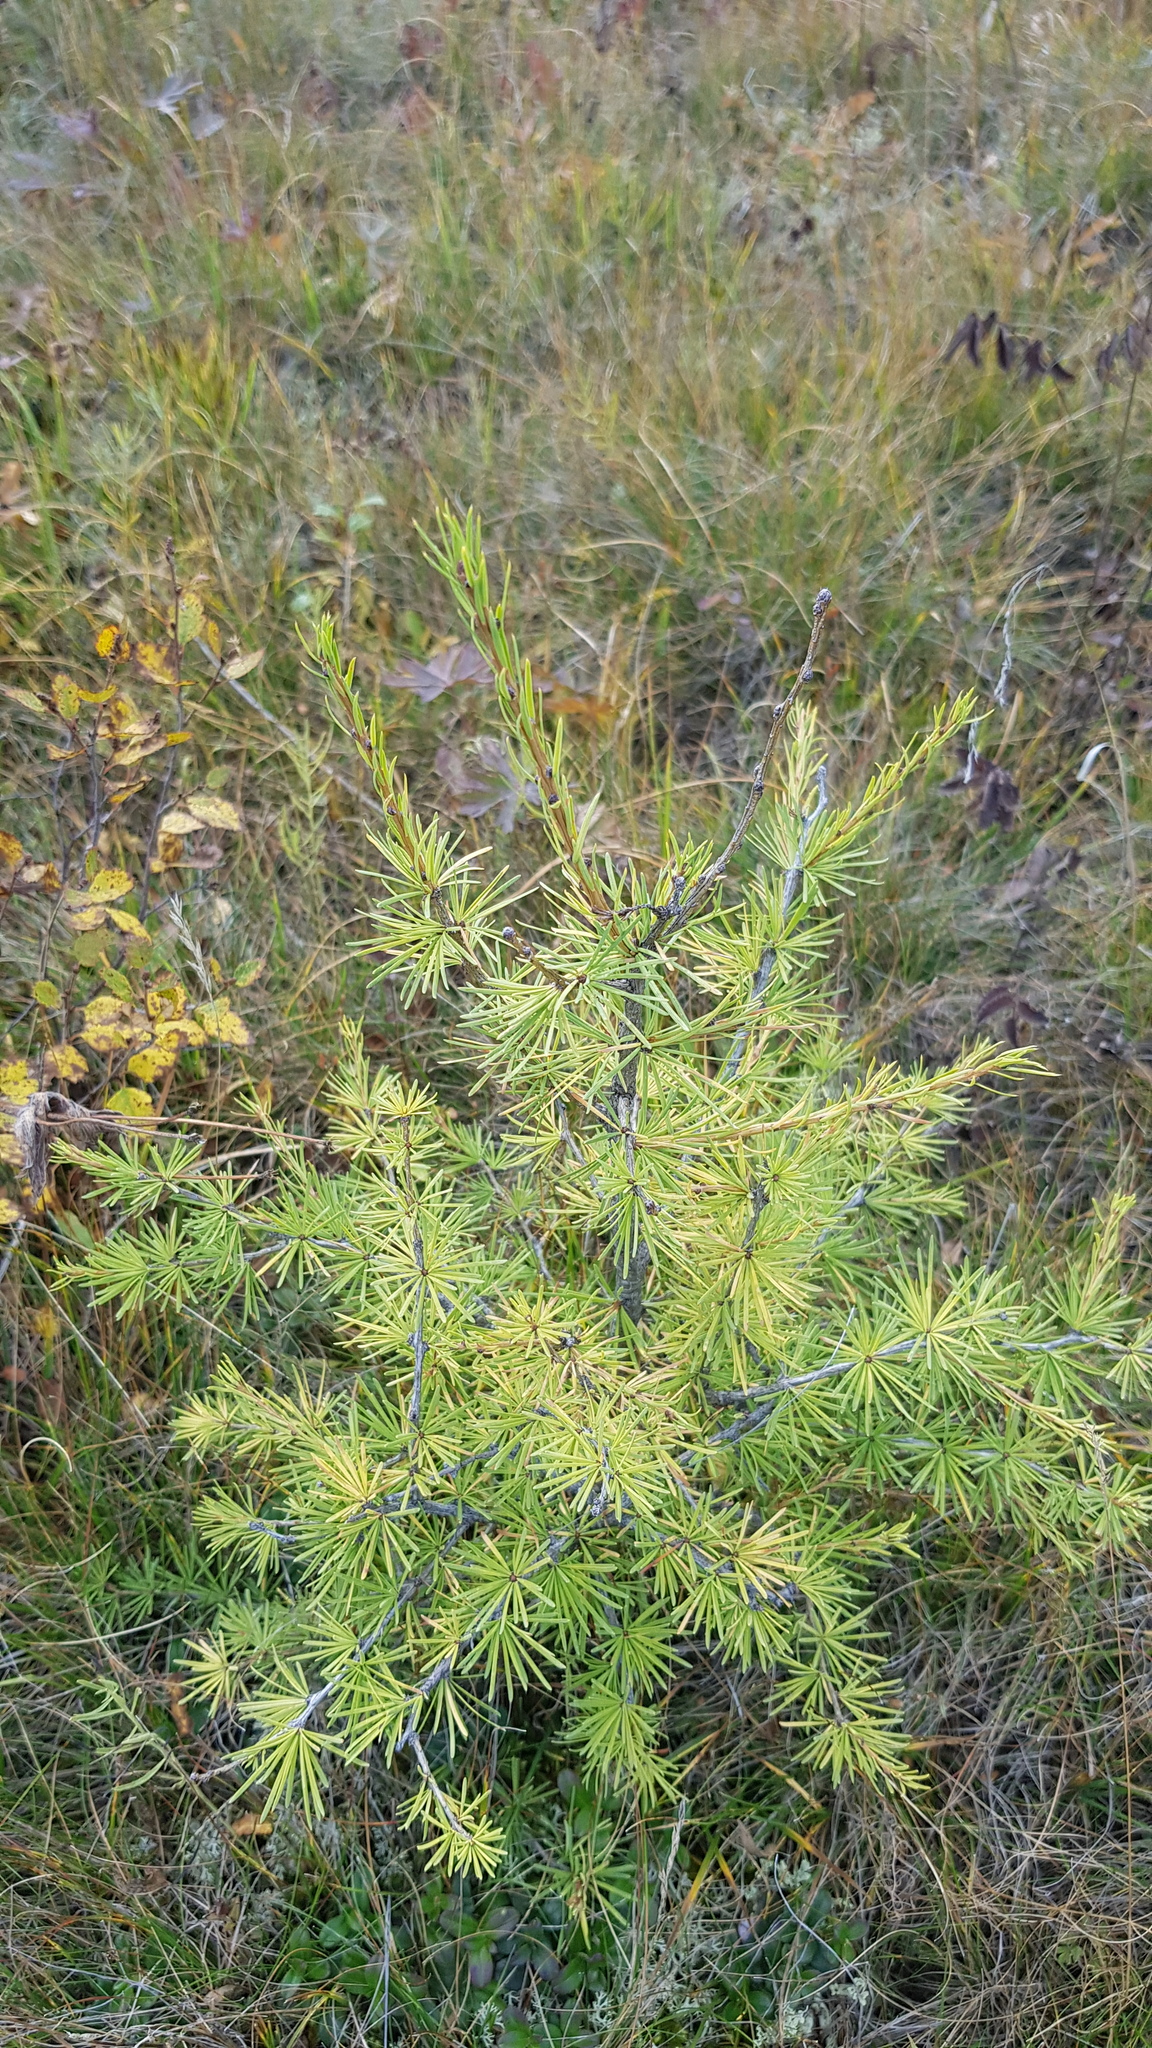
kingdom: Plantae
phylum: Tracheophyta
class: Pinopsida
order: Pinales
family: Pinaceae
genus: Larix
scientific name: Larix sibirica
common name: Siberian larch
